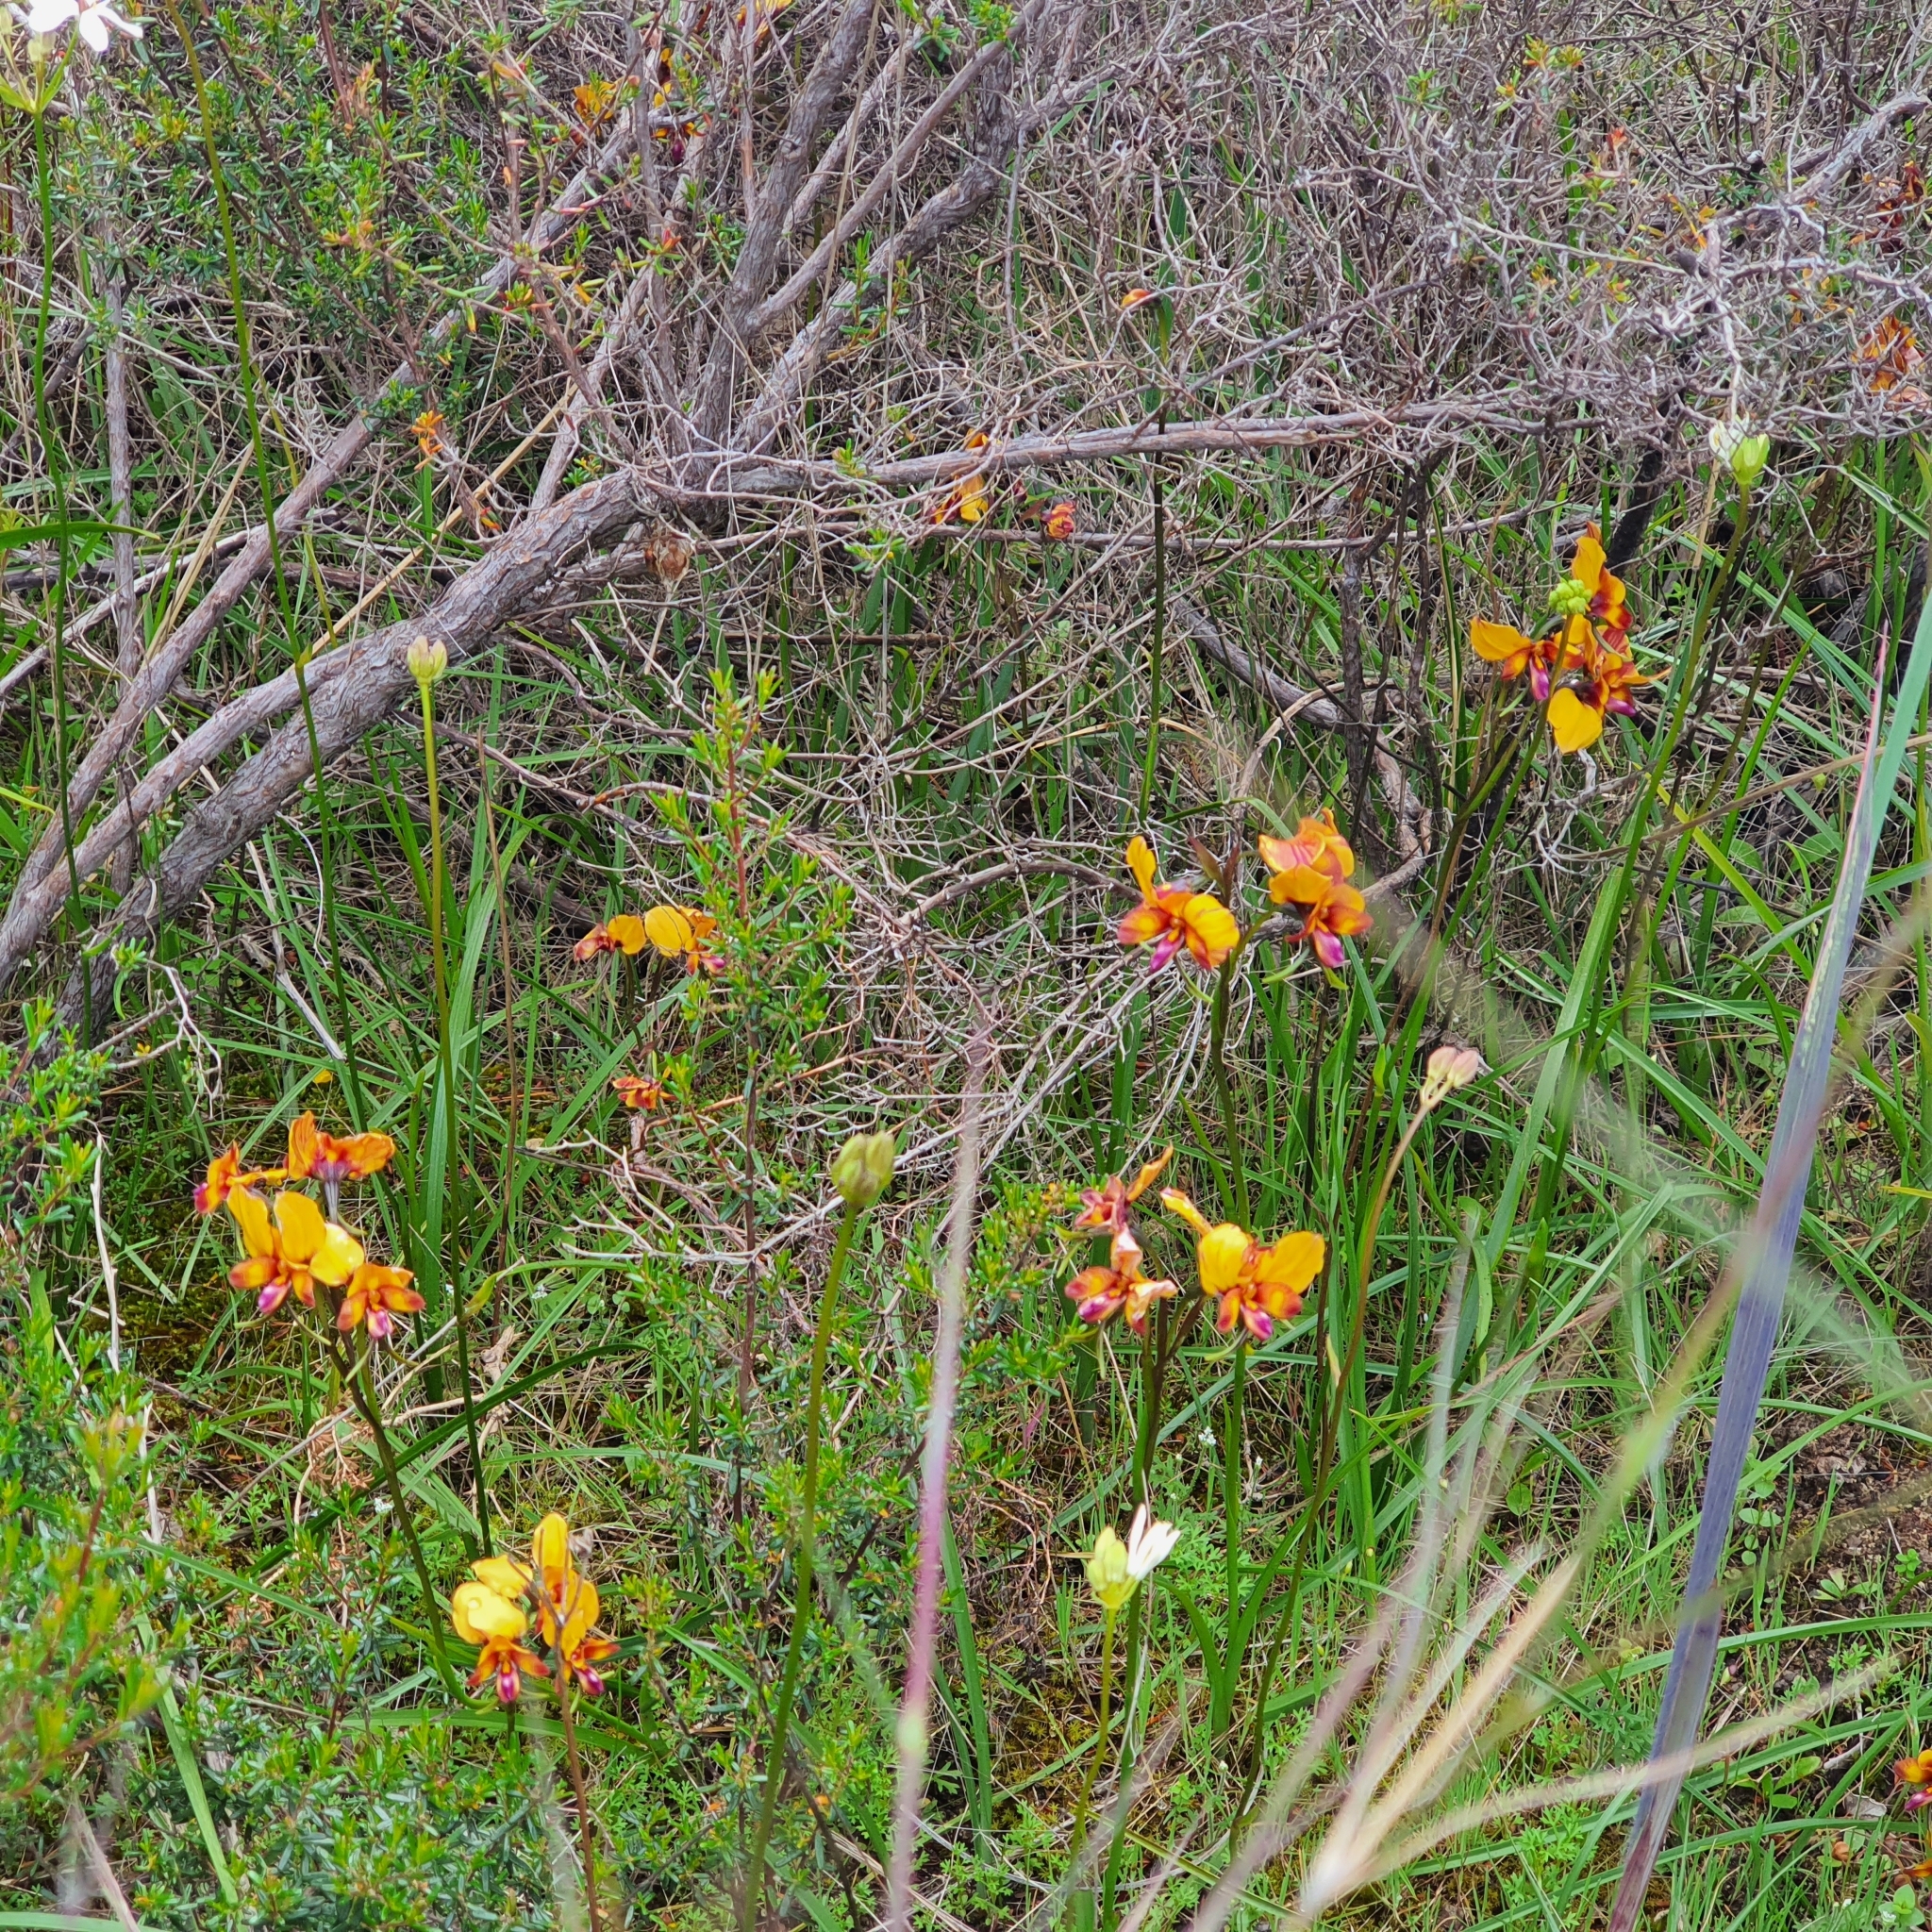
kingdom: Plantae
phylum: Tracheophyta
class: Liliopsida
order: Asparagales
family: Orchidaceae
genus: Diuris
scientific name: Diuris magnifica
